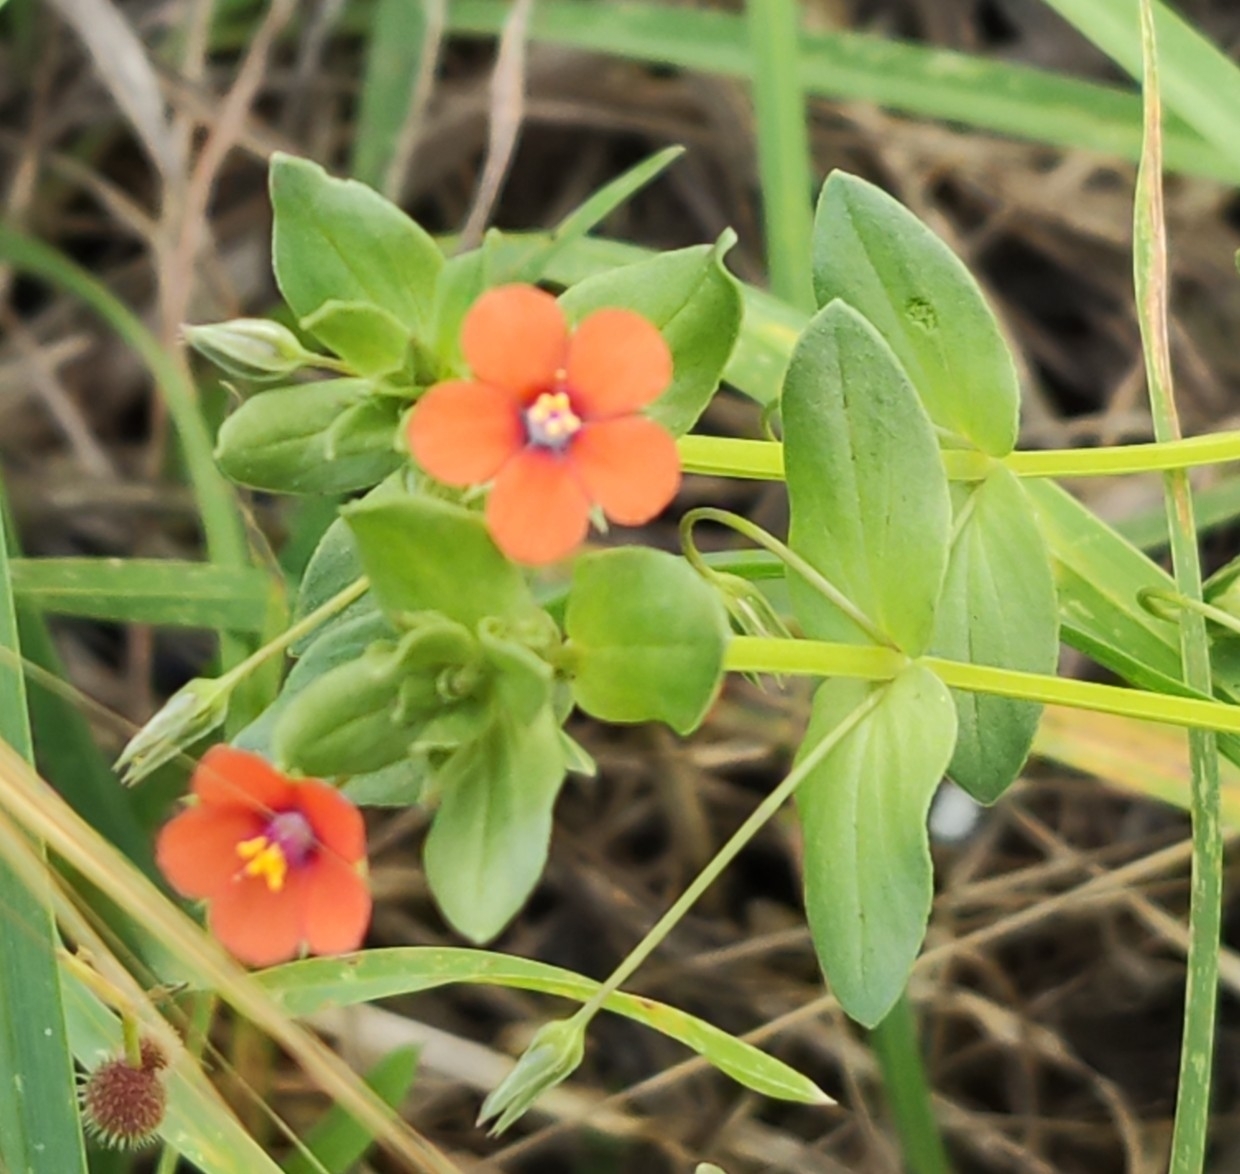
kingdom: Plantae
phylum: Tracheophyta
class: Magnoliopsida
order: Ericales
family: Primulaceae
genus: Lysimachia
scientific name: Lysimachia arvensis
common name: Scarlet pimpernel
